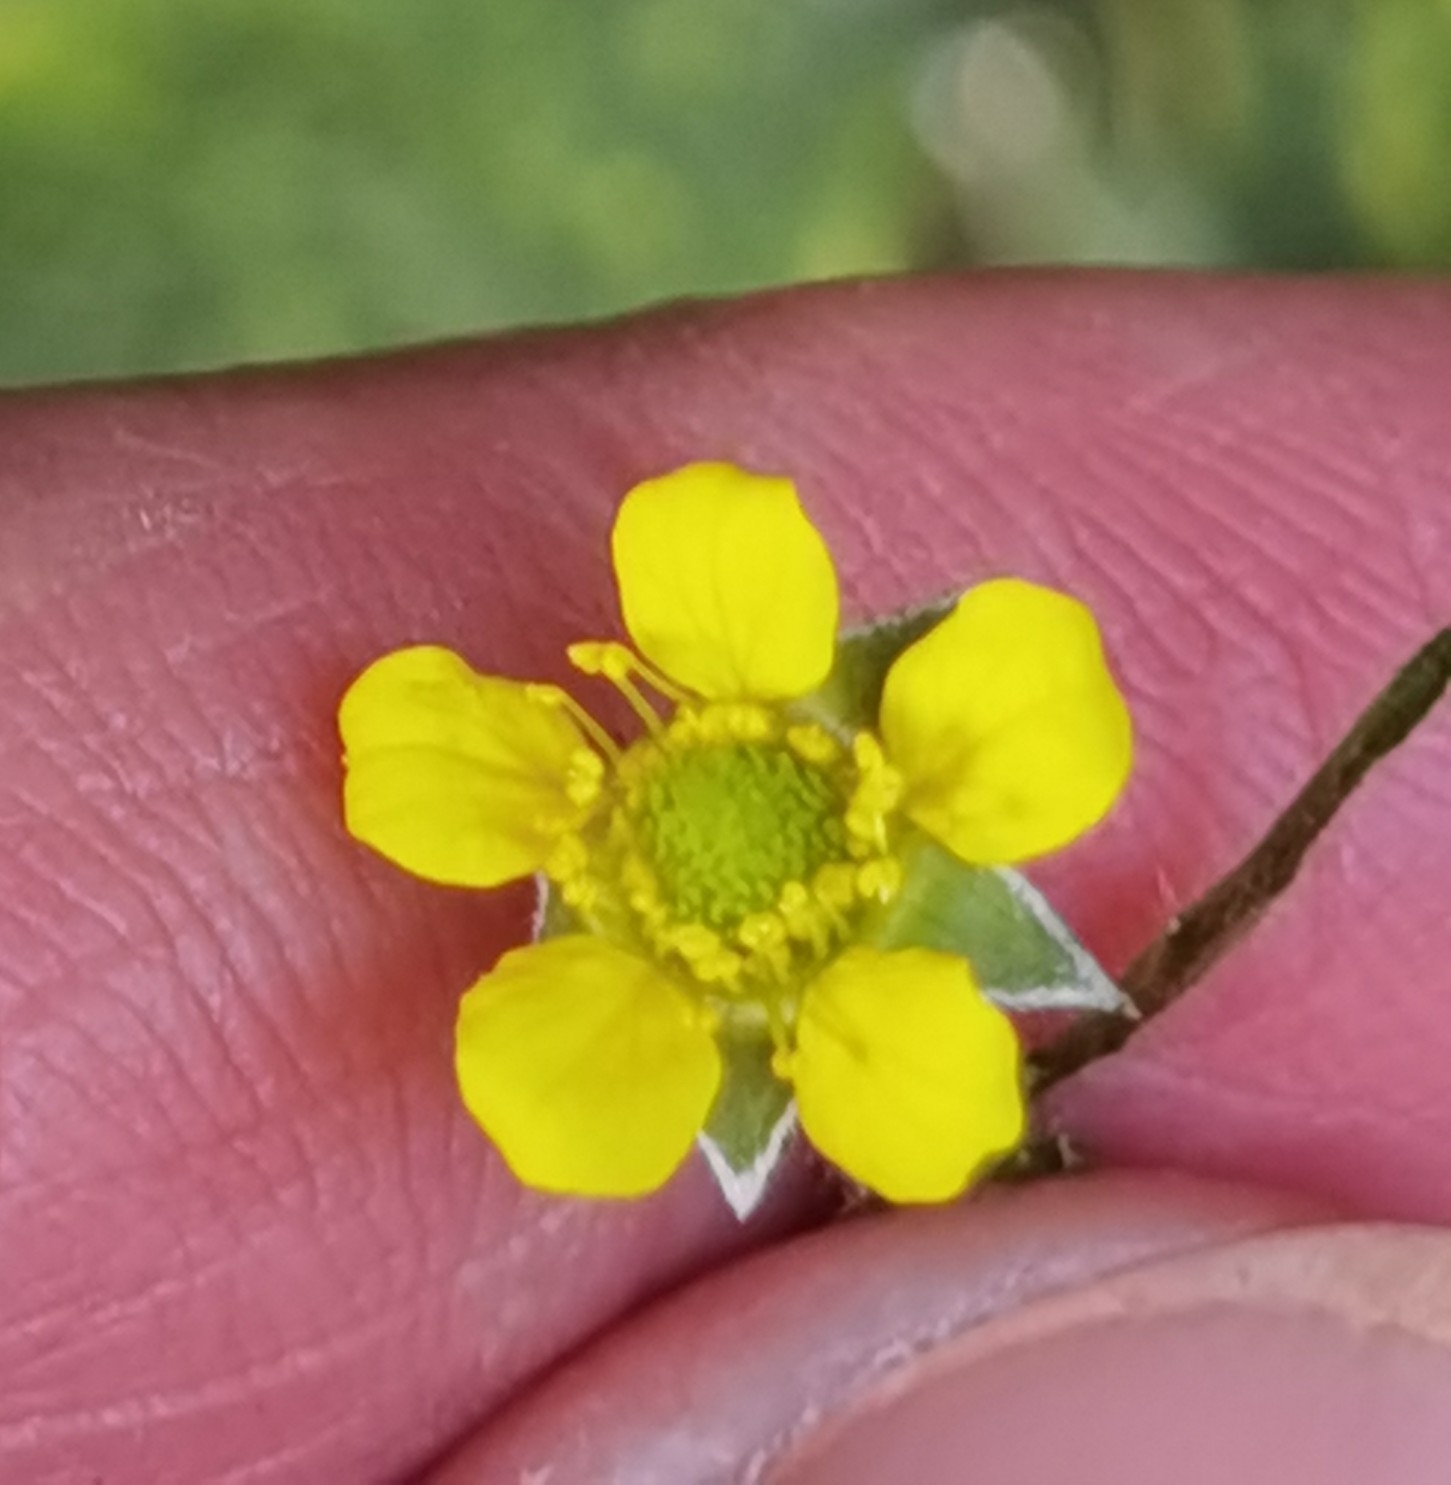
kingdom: Plantae
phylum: Tracheophyta
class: Magnoliopsida
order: Rosales
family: Rosaceae
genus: Geum
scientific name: Geum urbanum
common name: Wood avens
